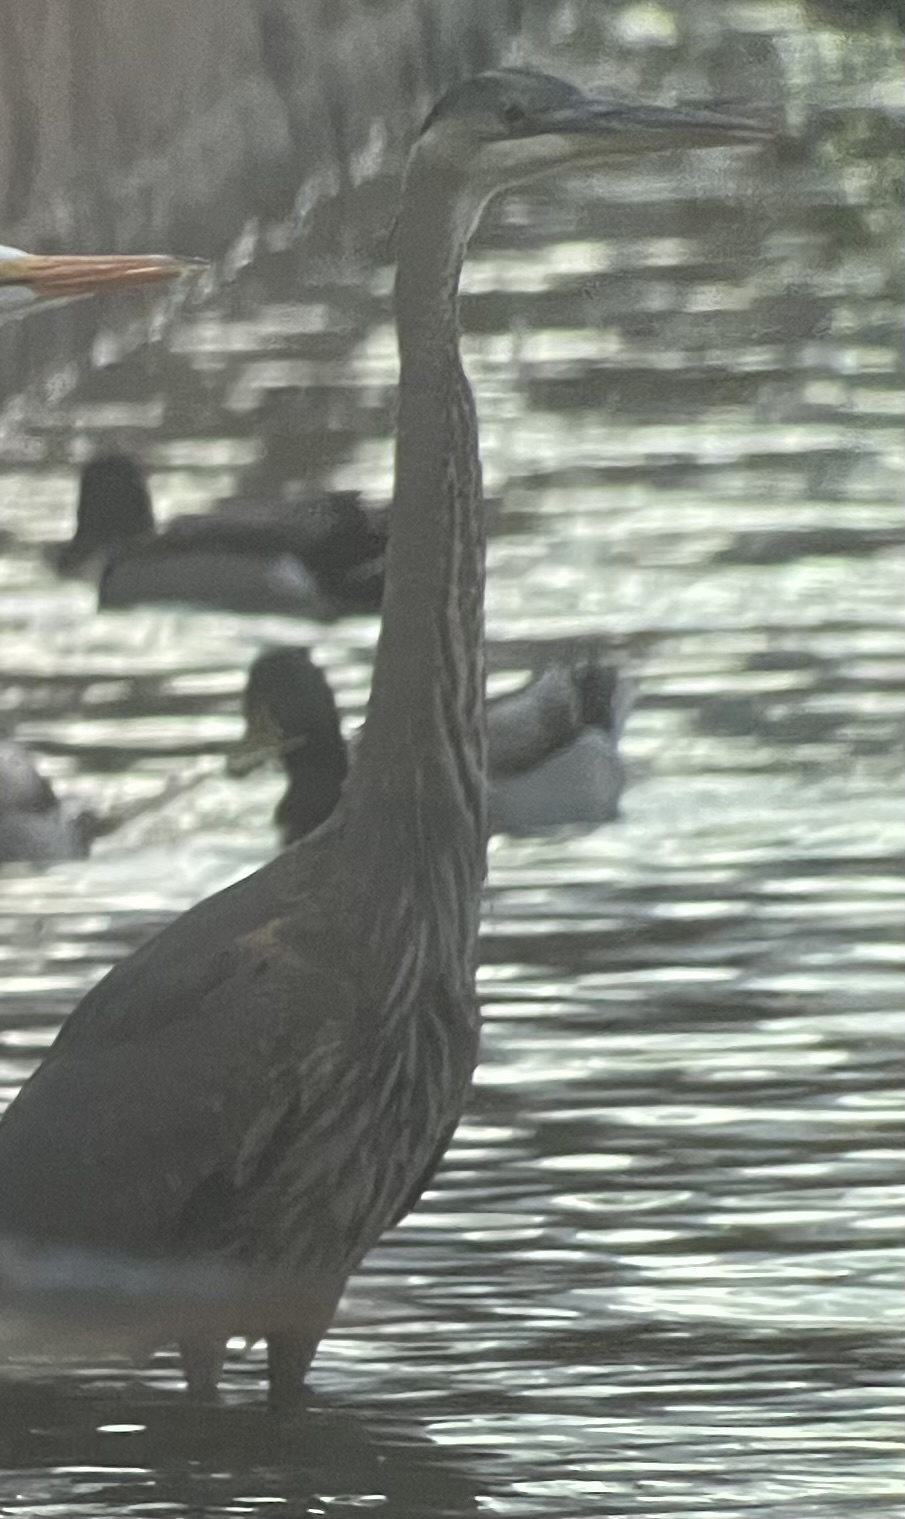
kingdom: Animalia
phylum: Chordata
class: Aves
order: Pelecaniformes
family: Ardeidae
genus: Ardea
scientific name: Ardea herodias
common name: Great blue heron
